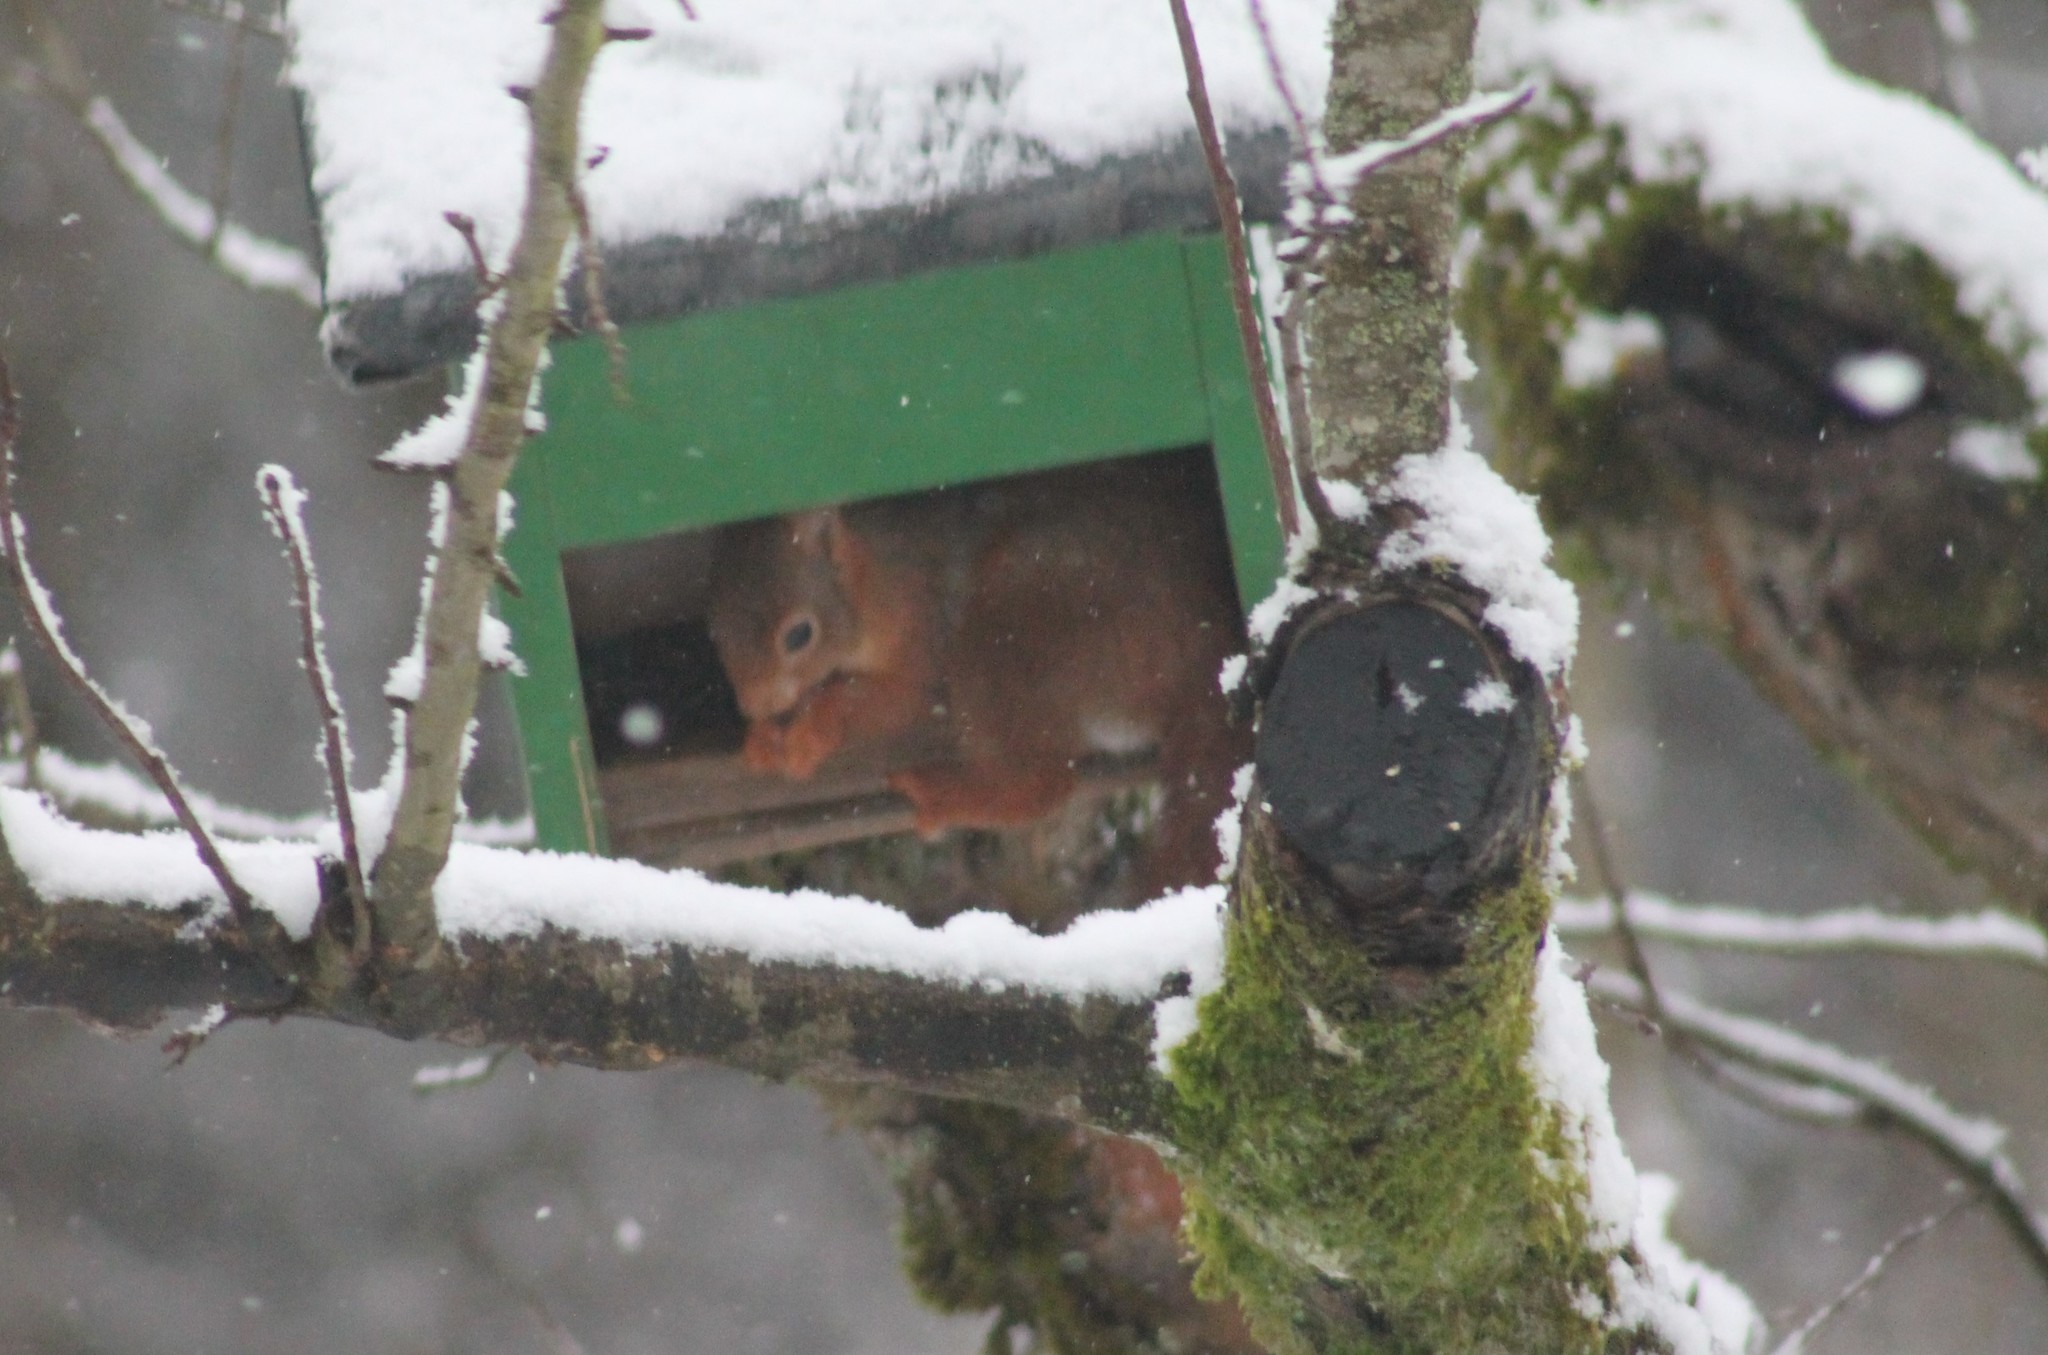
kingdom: Animalia
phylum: Chordata
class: Mammalia
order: Rodentia
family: Sciuridae
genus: Sciurus
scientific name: Sciurus vulgaris
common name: Eurasian red squirrel
